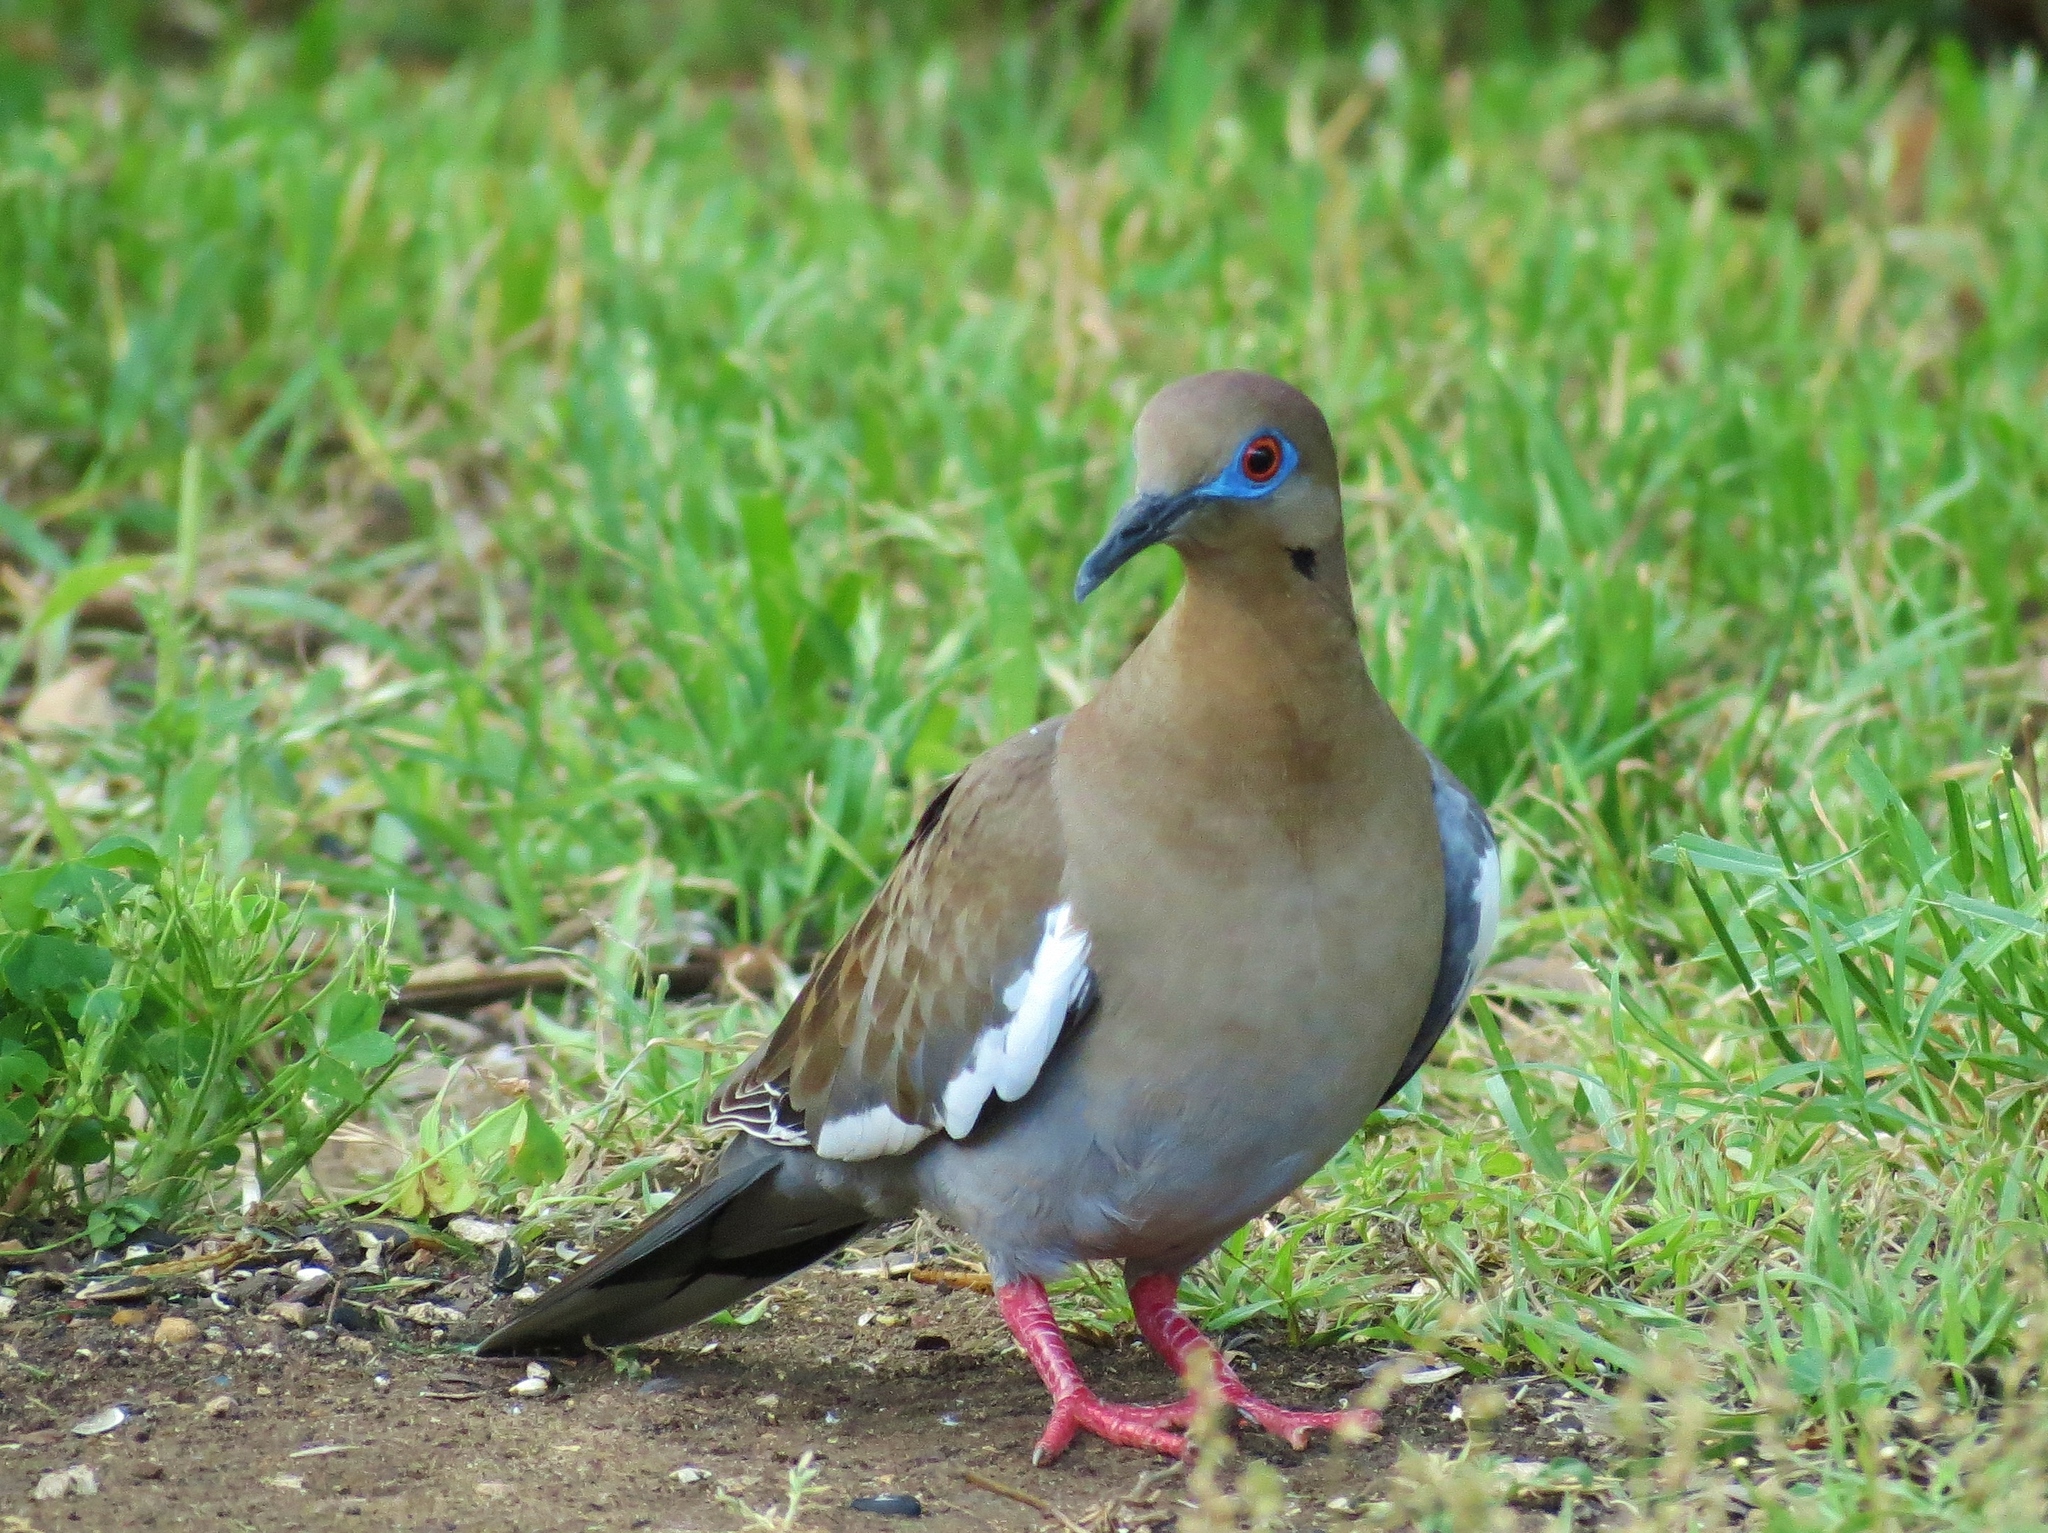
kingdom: Animalia
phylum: Chordata
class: Aves
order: Columbiformes
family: Columbidae
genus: Zenaida
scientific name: Zenaida asiatica
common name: White-winged dove
